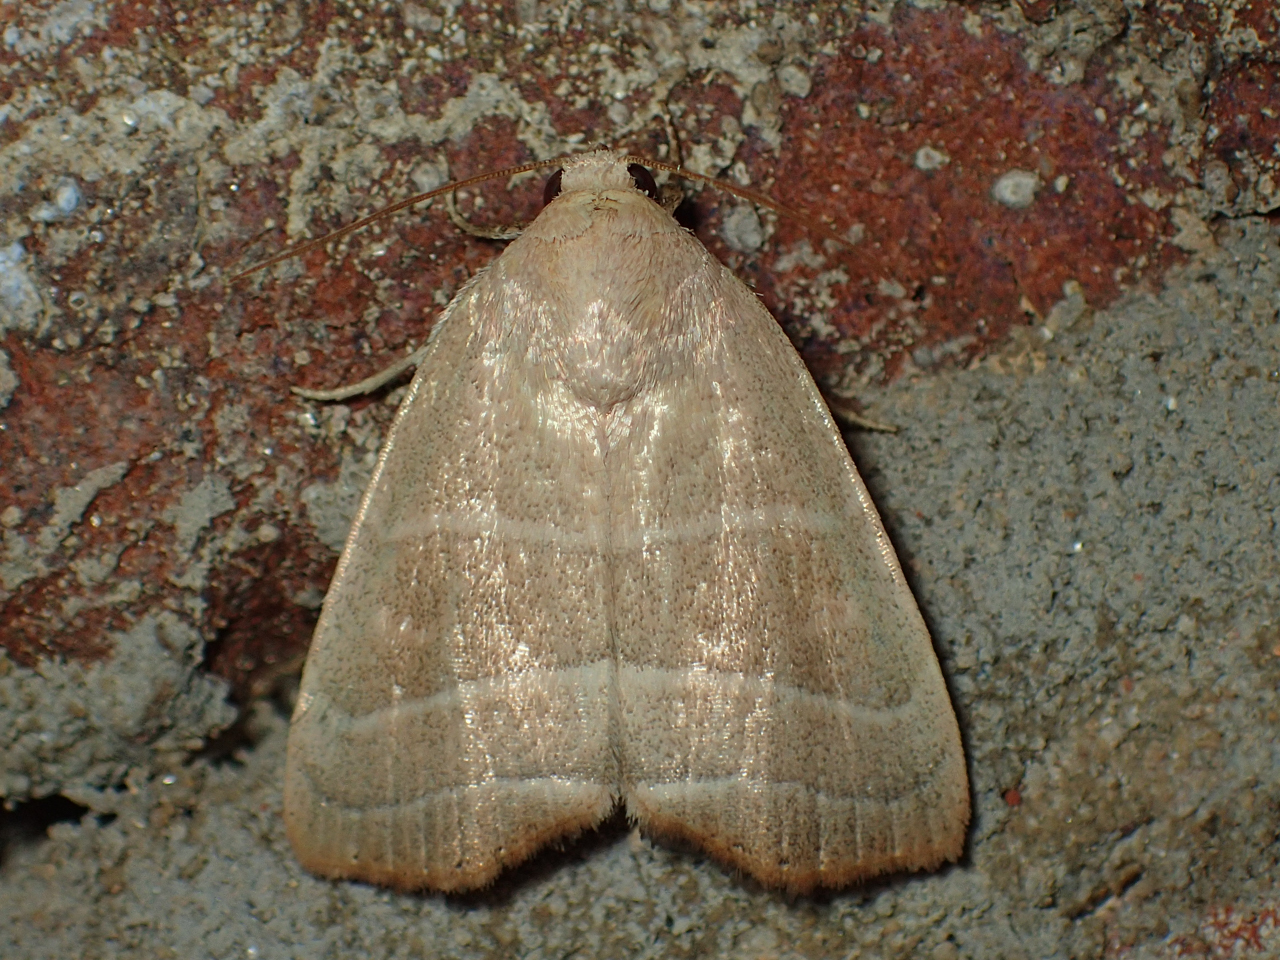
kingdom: Animalia
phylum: Arthropoda
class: Insecta
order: Lepidoptera
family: Noctuidae
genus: Bagisara
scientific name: Bagisara rectifascia
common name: Straight lined mallow moth
